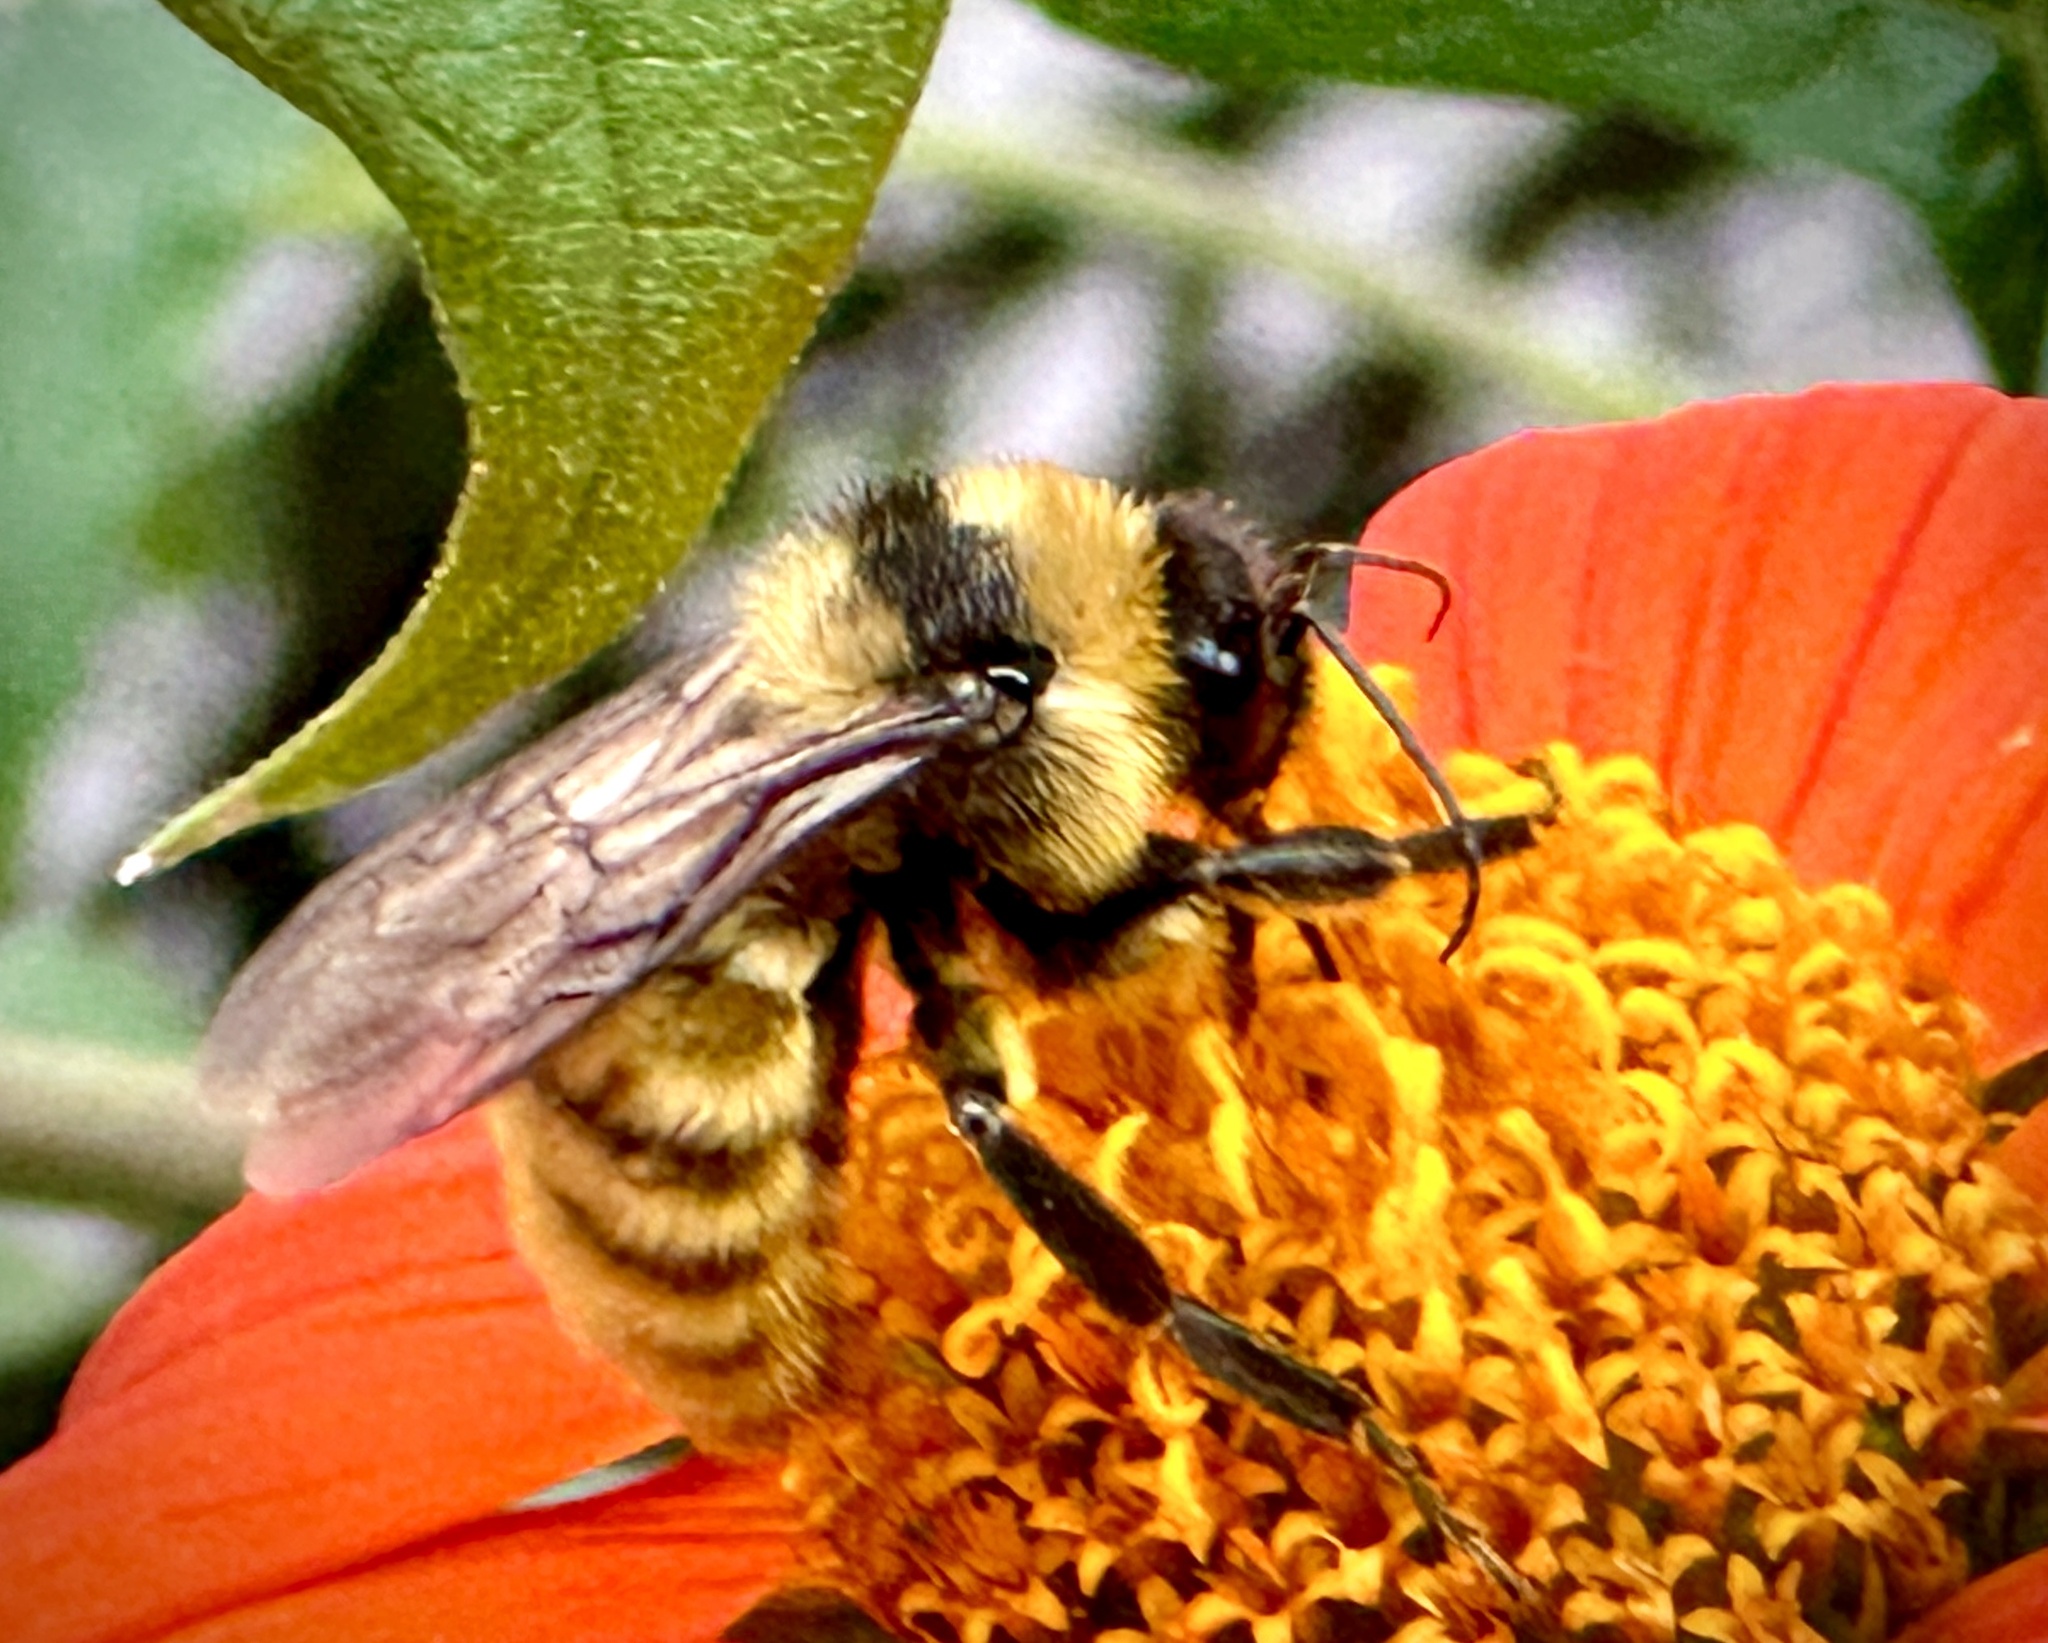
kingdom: Animalia
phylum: Arthropoda
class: Insecta
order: Hymenoptera
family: Apidae
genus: Bombus
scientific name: Bombus pensylvanicus
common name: Bumble bee
